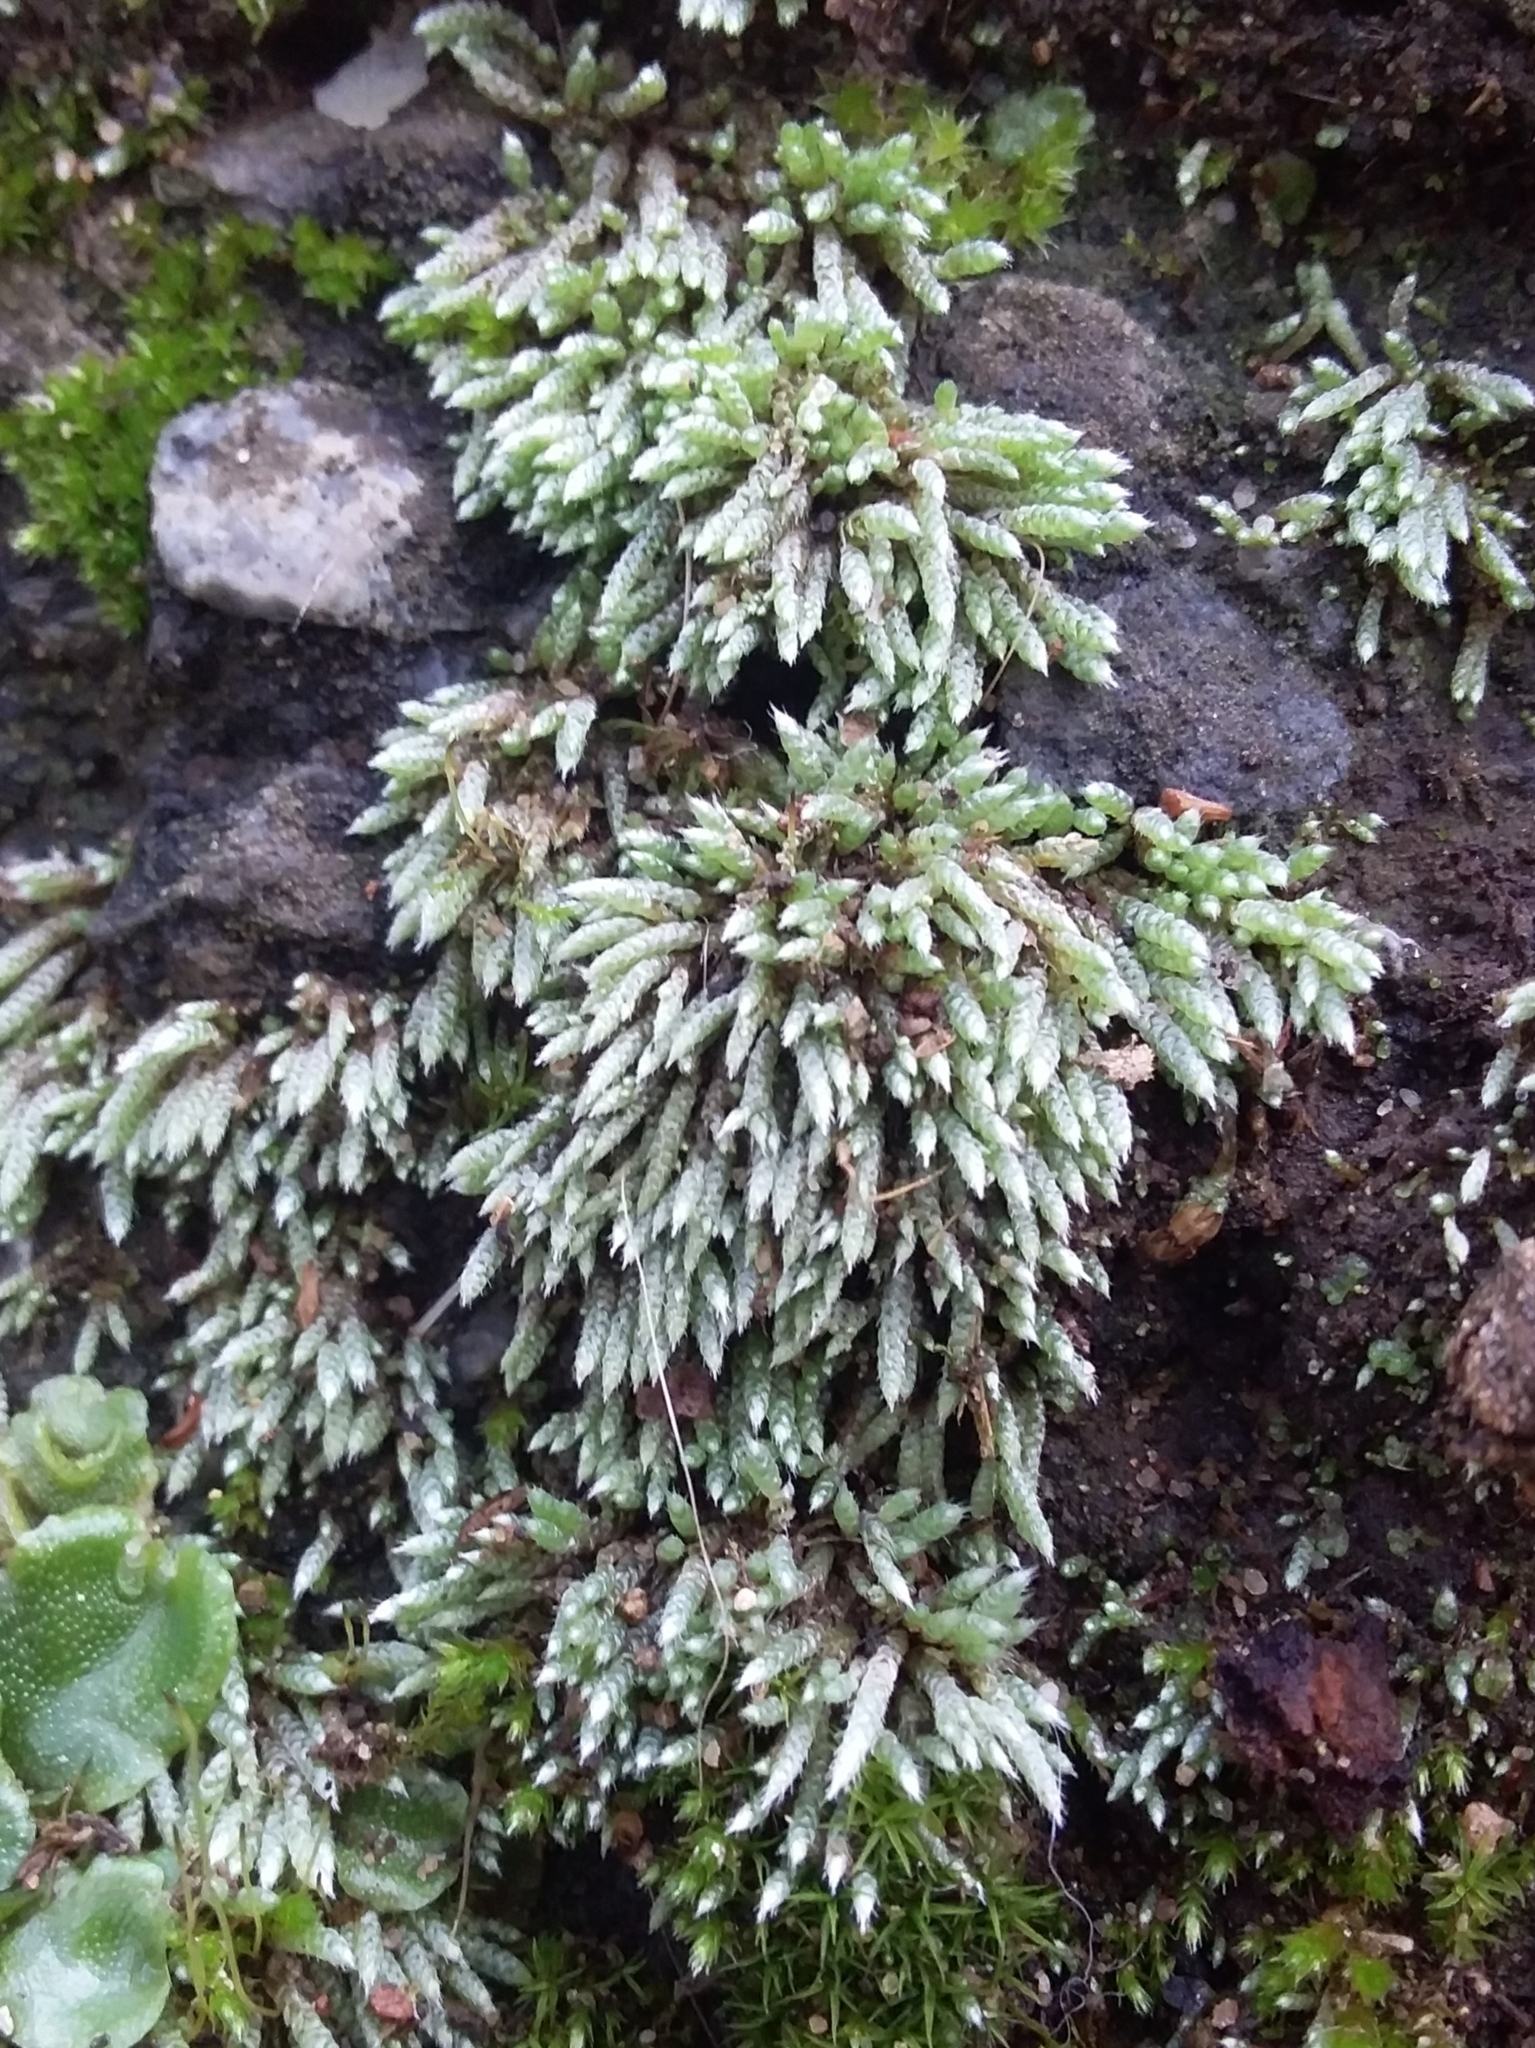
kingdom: Plantae
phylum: Bryophyta
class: Bryopsida
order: Bryales
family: Bryaceae
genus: Bryum
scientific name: Bryum argenteum
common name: Silver-moss
